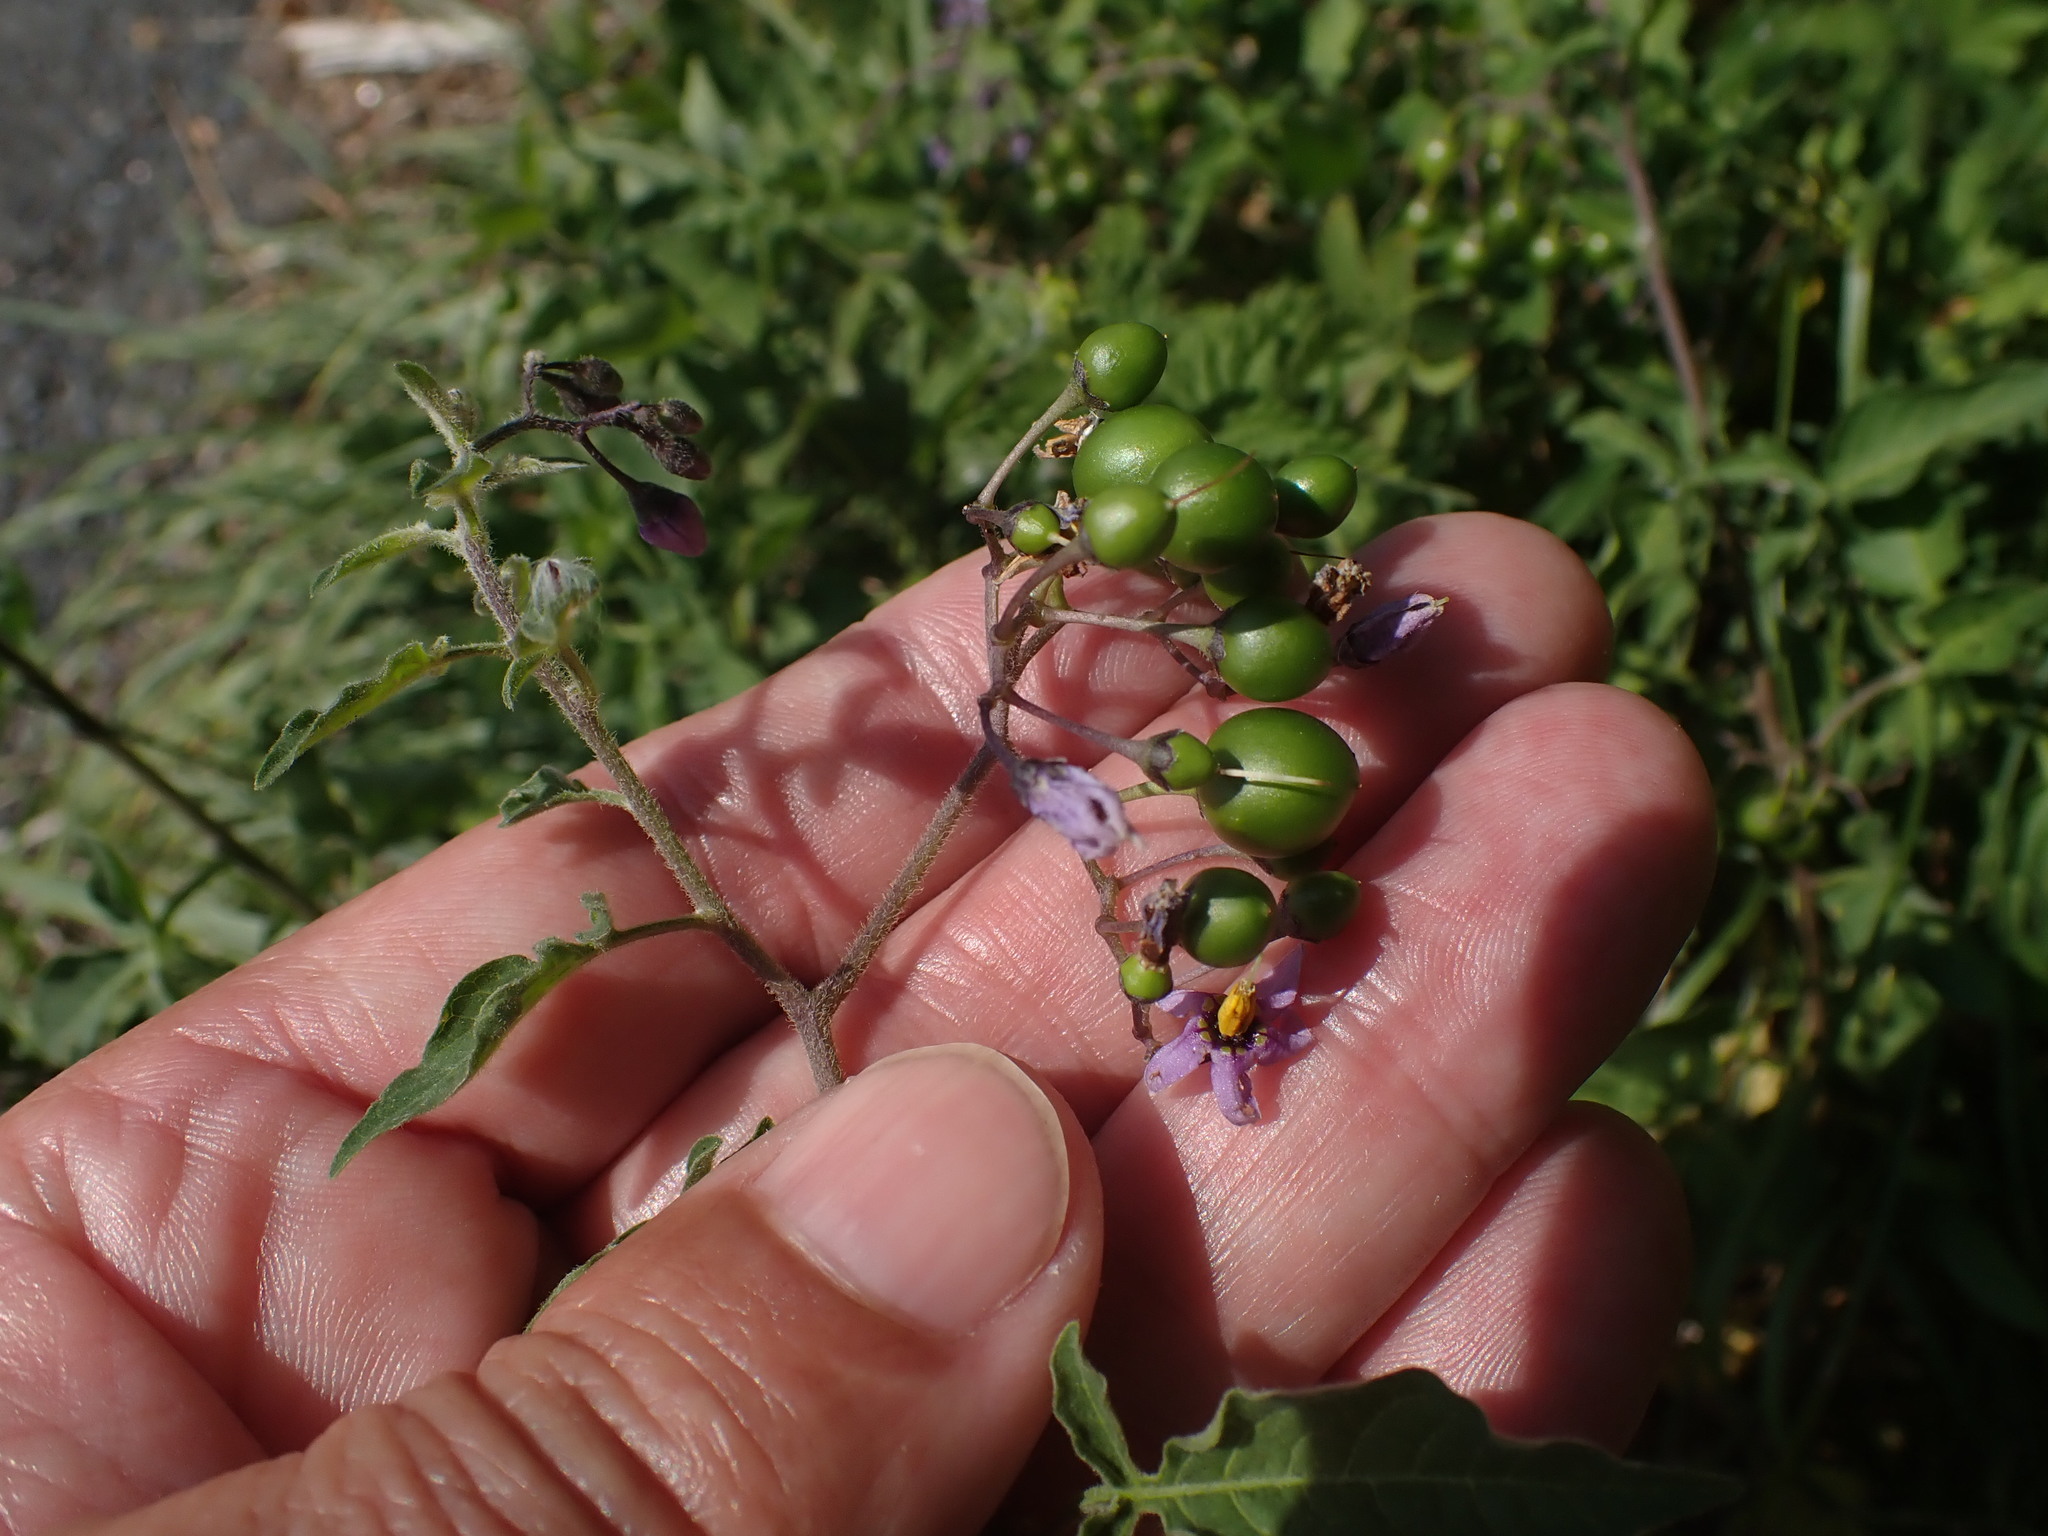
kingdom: Plantae
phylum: Tracheophyta
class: Magnoliopsida
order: Solanales
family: Solanaceae
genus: Solanum
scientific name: Solanum dulcamara
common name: Climbing nightshade
